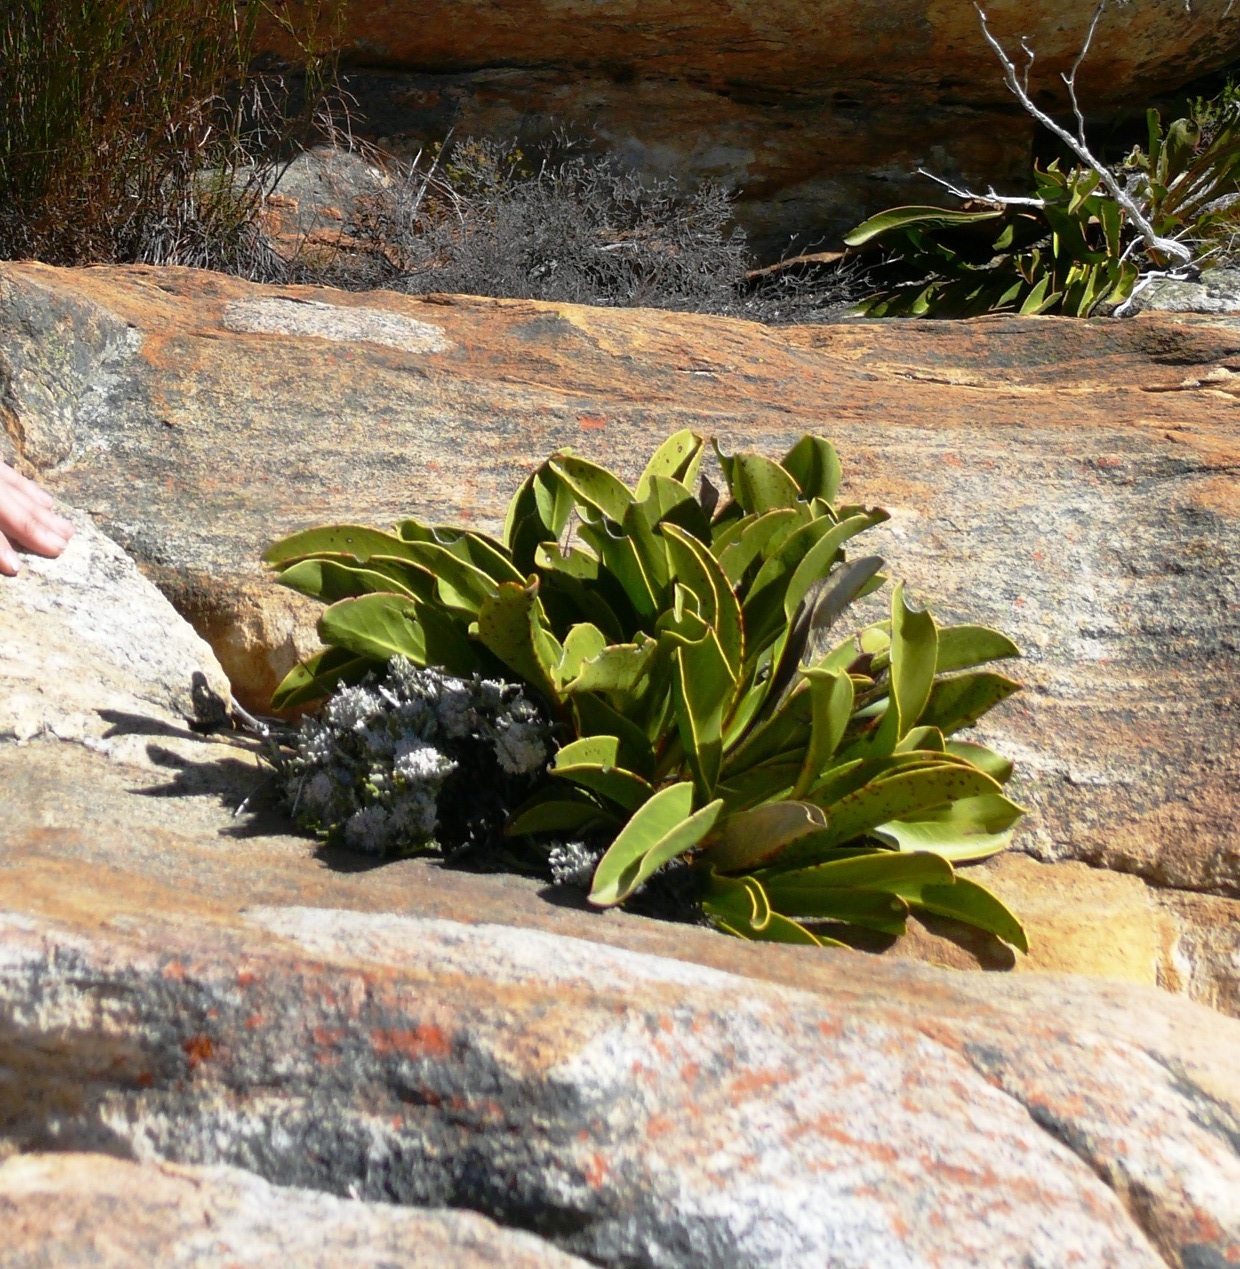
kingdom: Plantae
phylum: Tracheophyta
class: Magnoliopsida
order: Proteales
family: Proteaceae
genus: Protea
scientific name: Protea cryophila
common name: Snow protea
